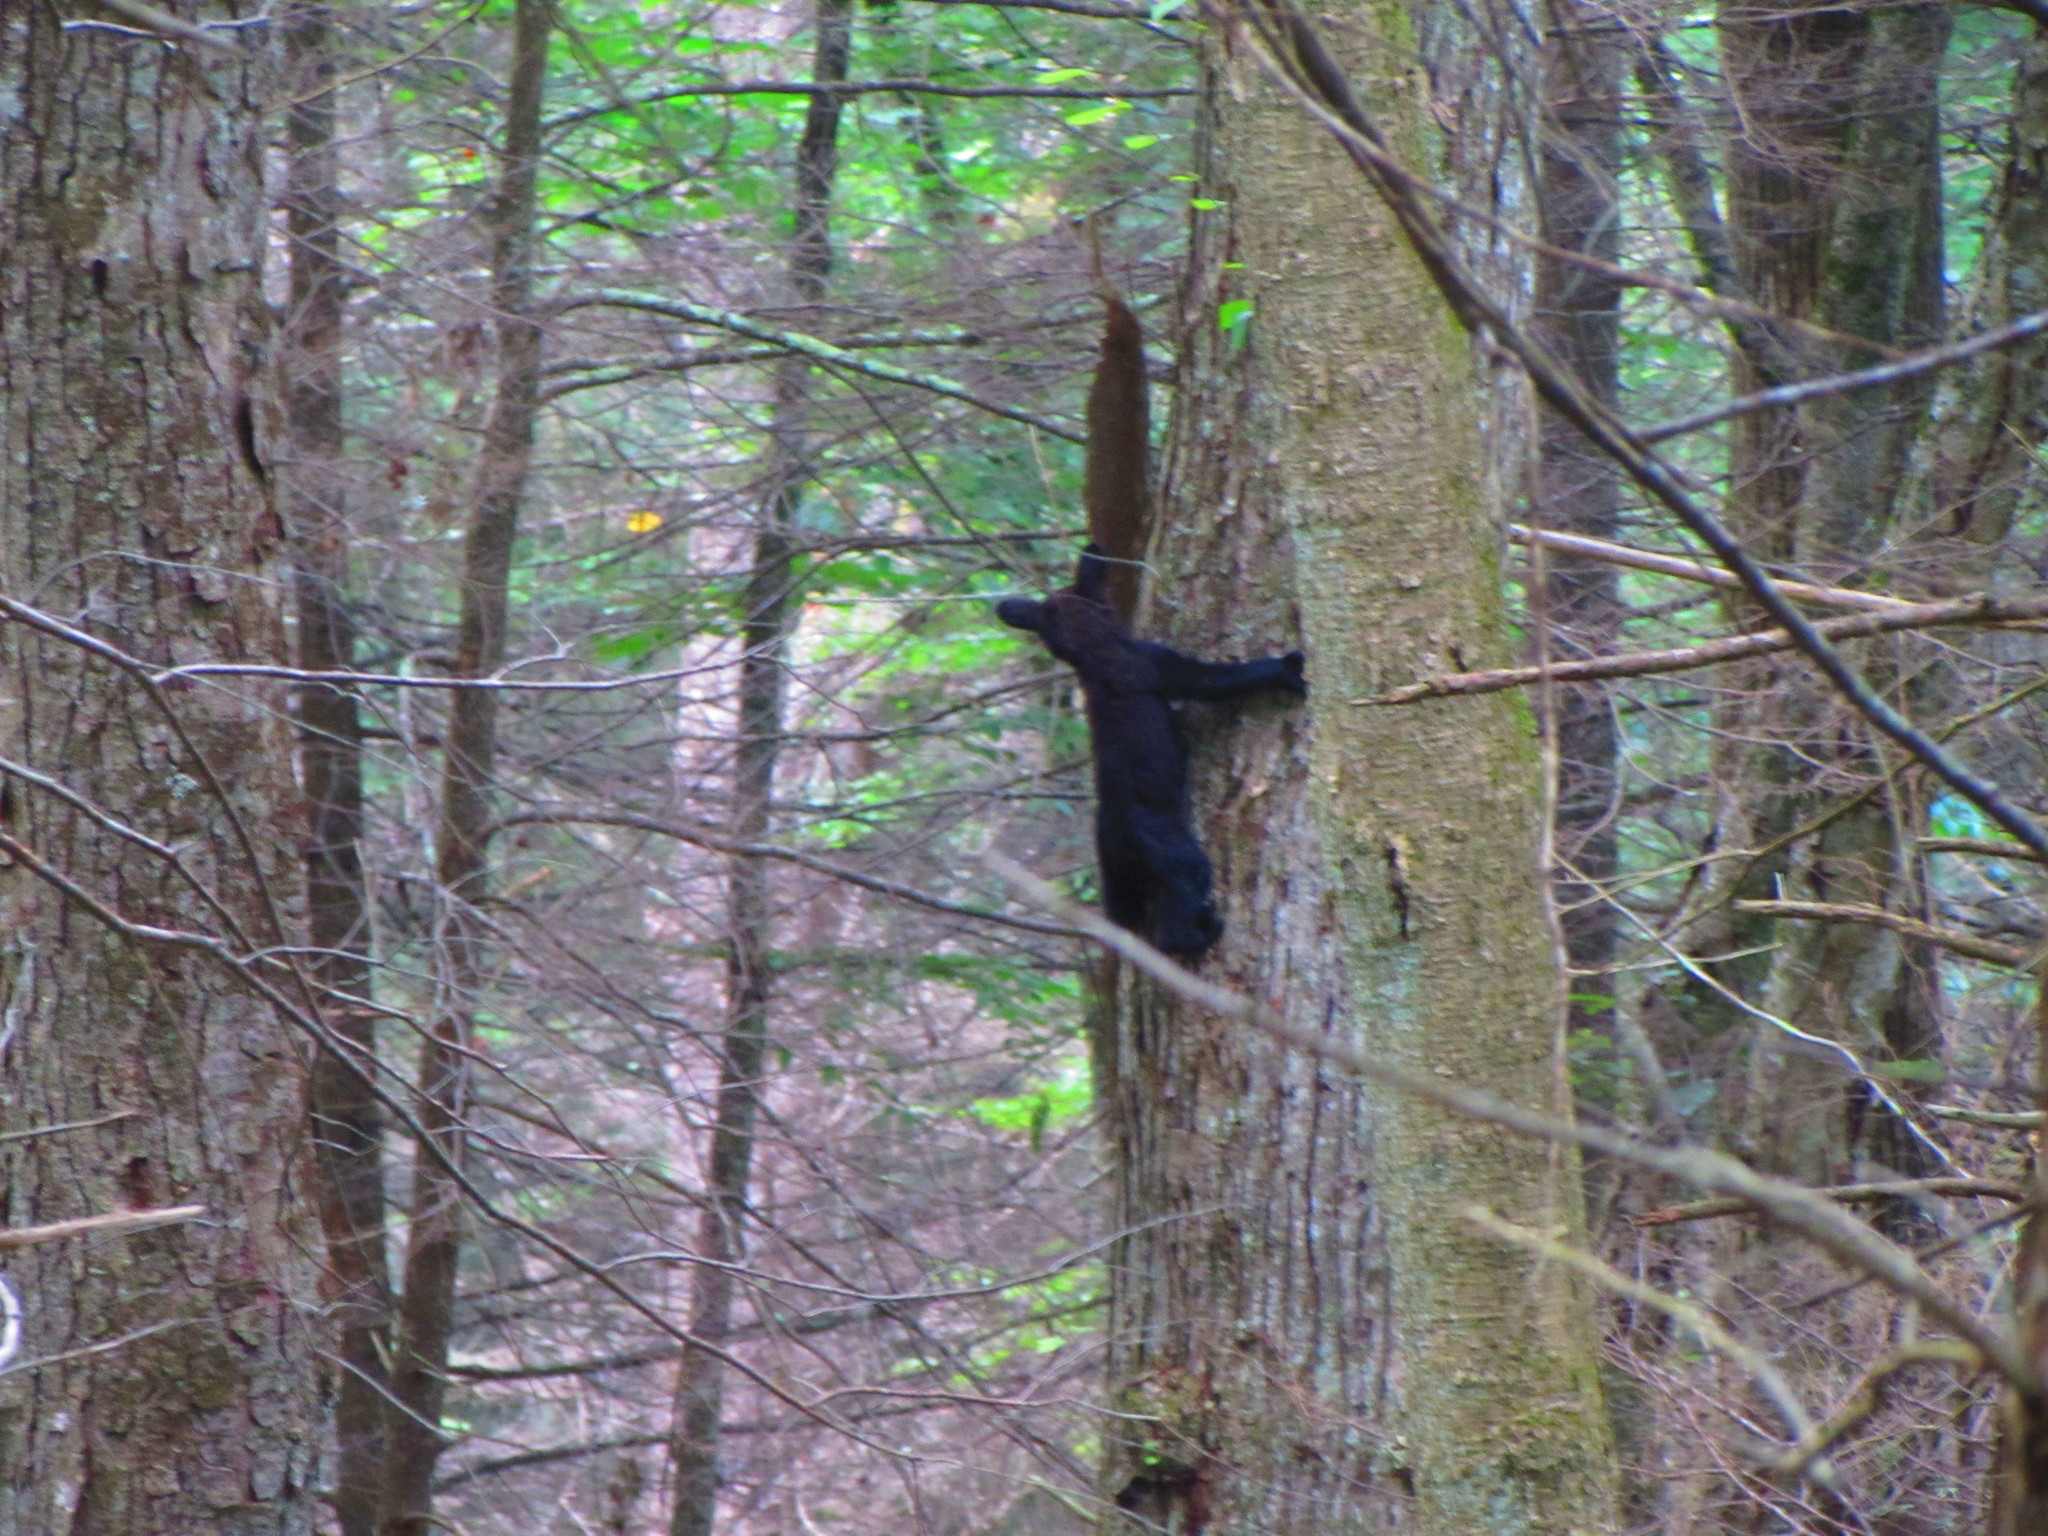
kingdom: Animalia
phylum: Chordata
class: Mammalia
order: Carnivora
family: Ursidae
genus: Ursus
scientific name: Ursus americanus
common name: American black bear
